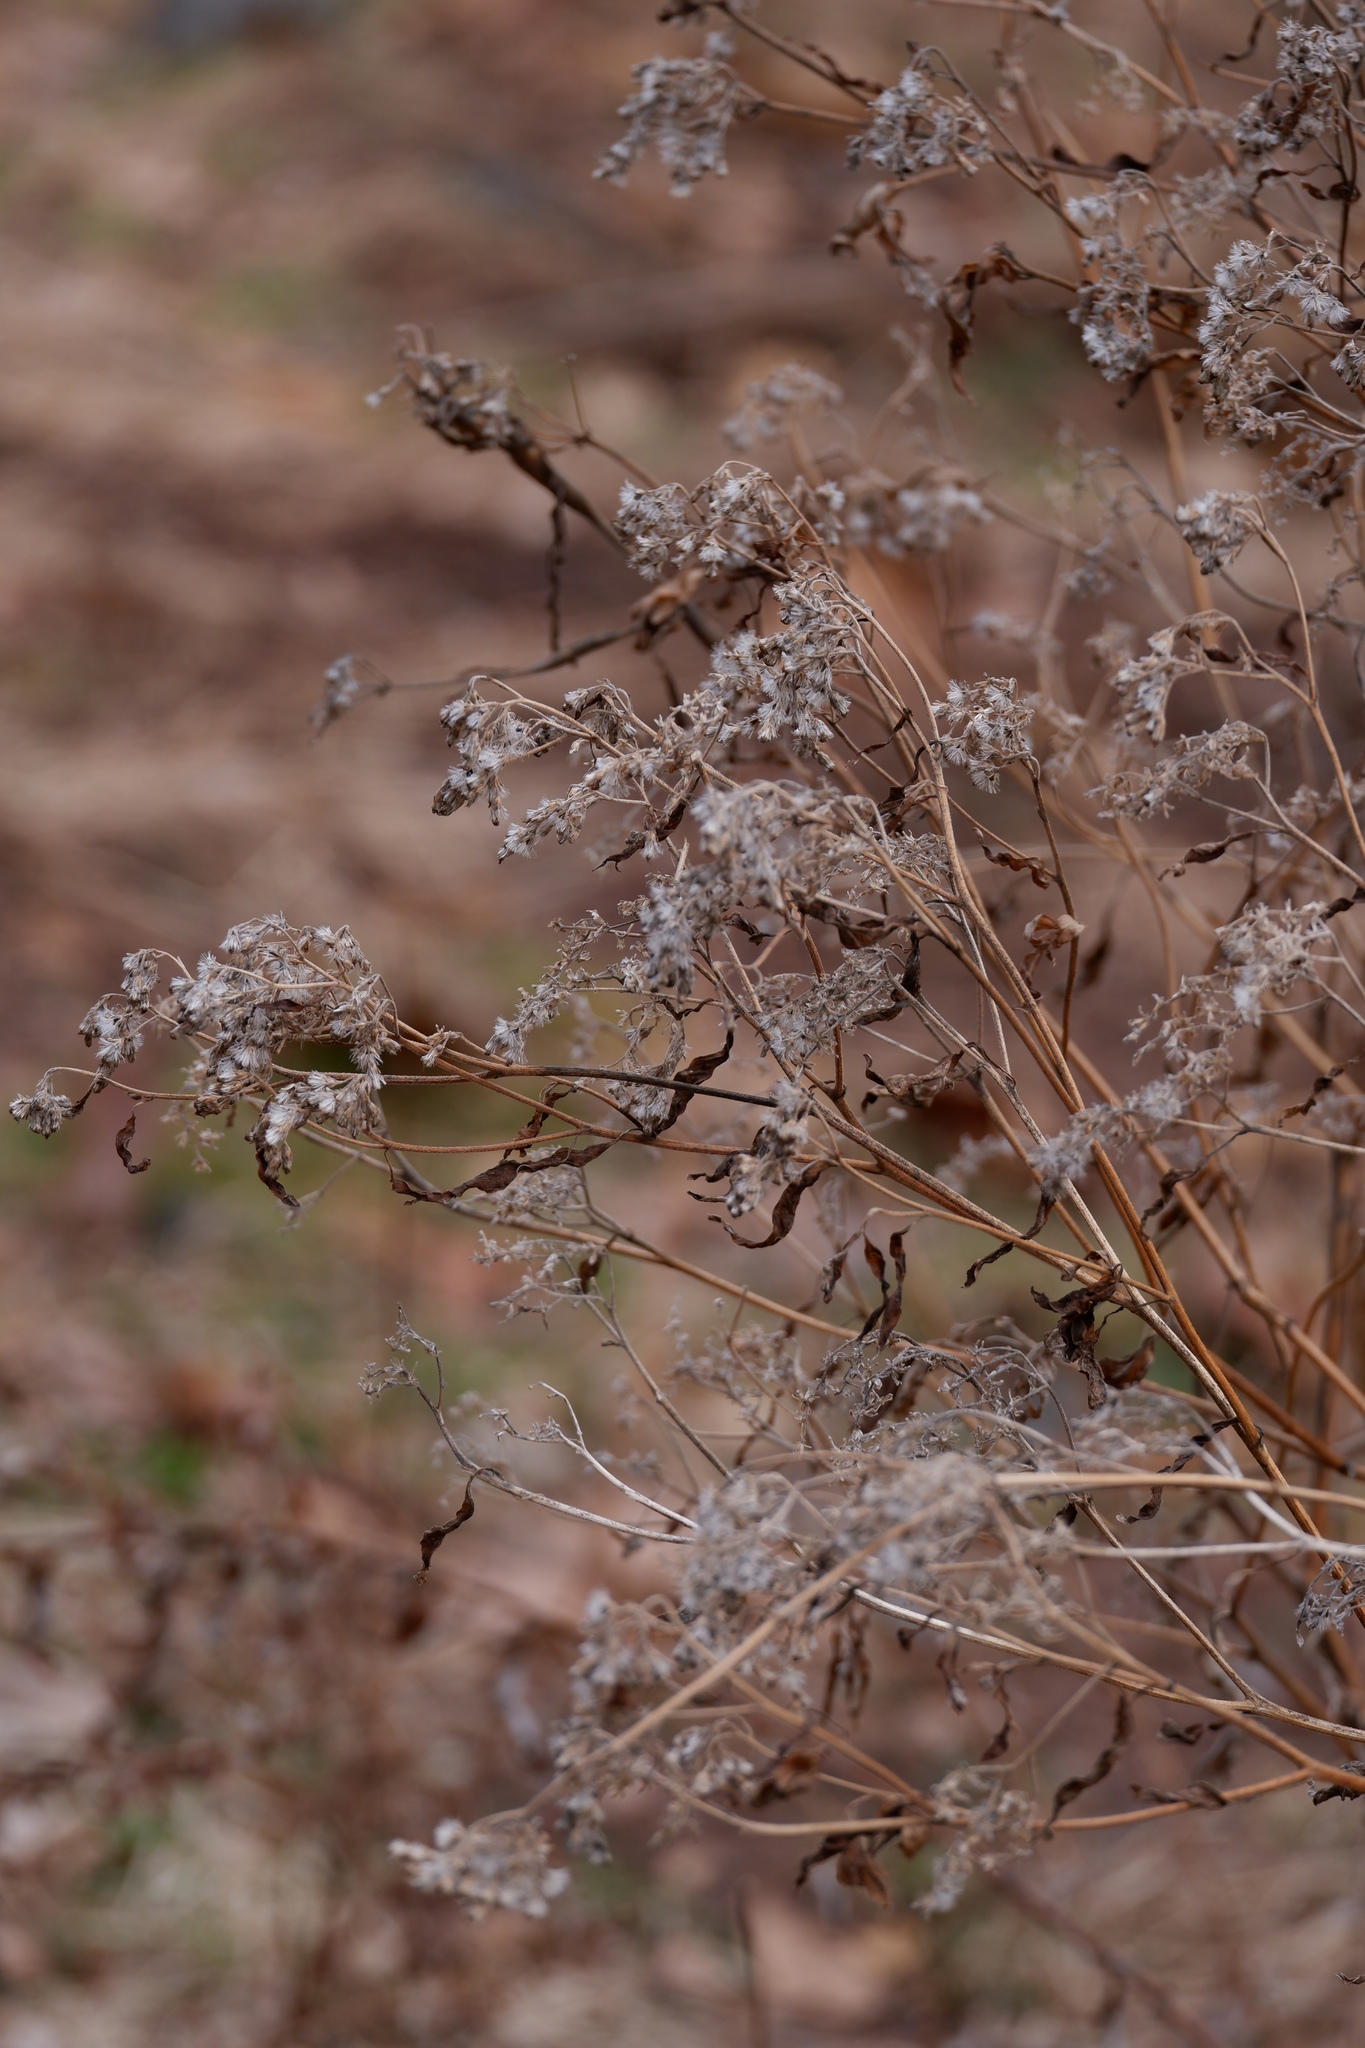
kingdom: Plantae
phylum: Tracheophyta
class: Magnoliopsida
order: Asterales
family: Asteraceae
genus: Ageratina
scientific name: Ageratina altissima
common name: White snakeroot
